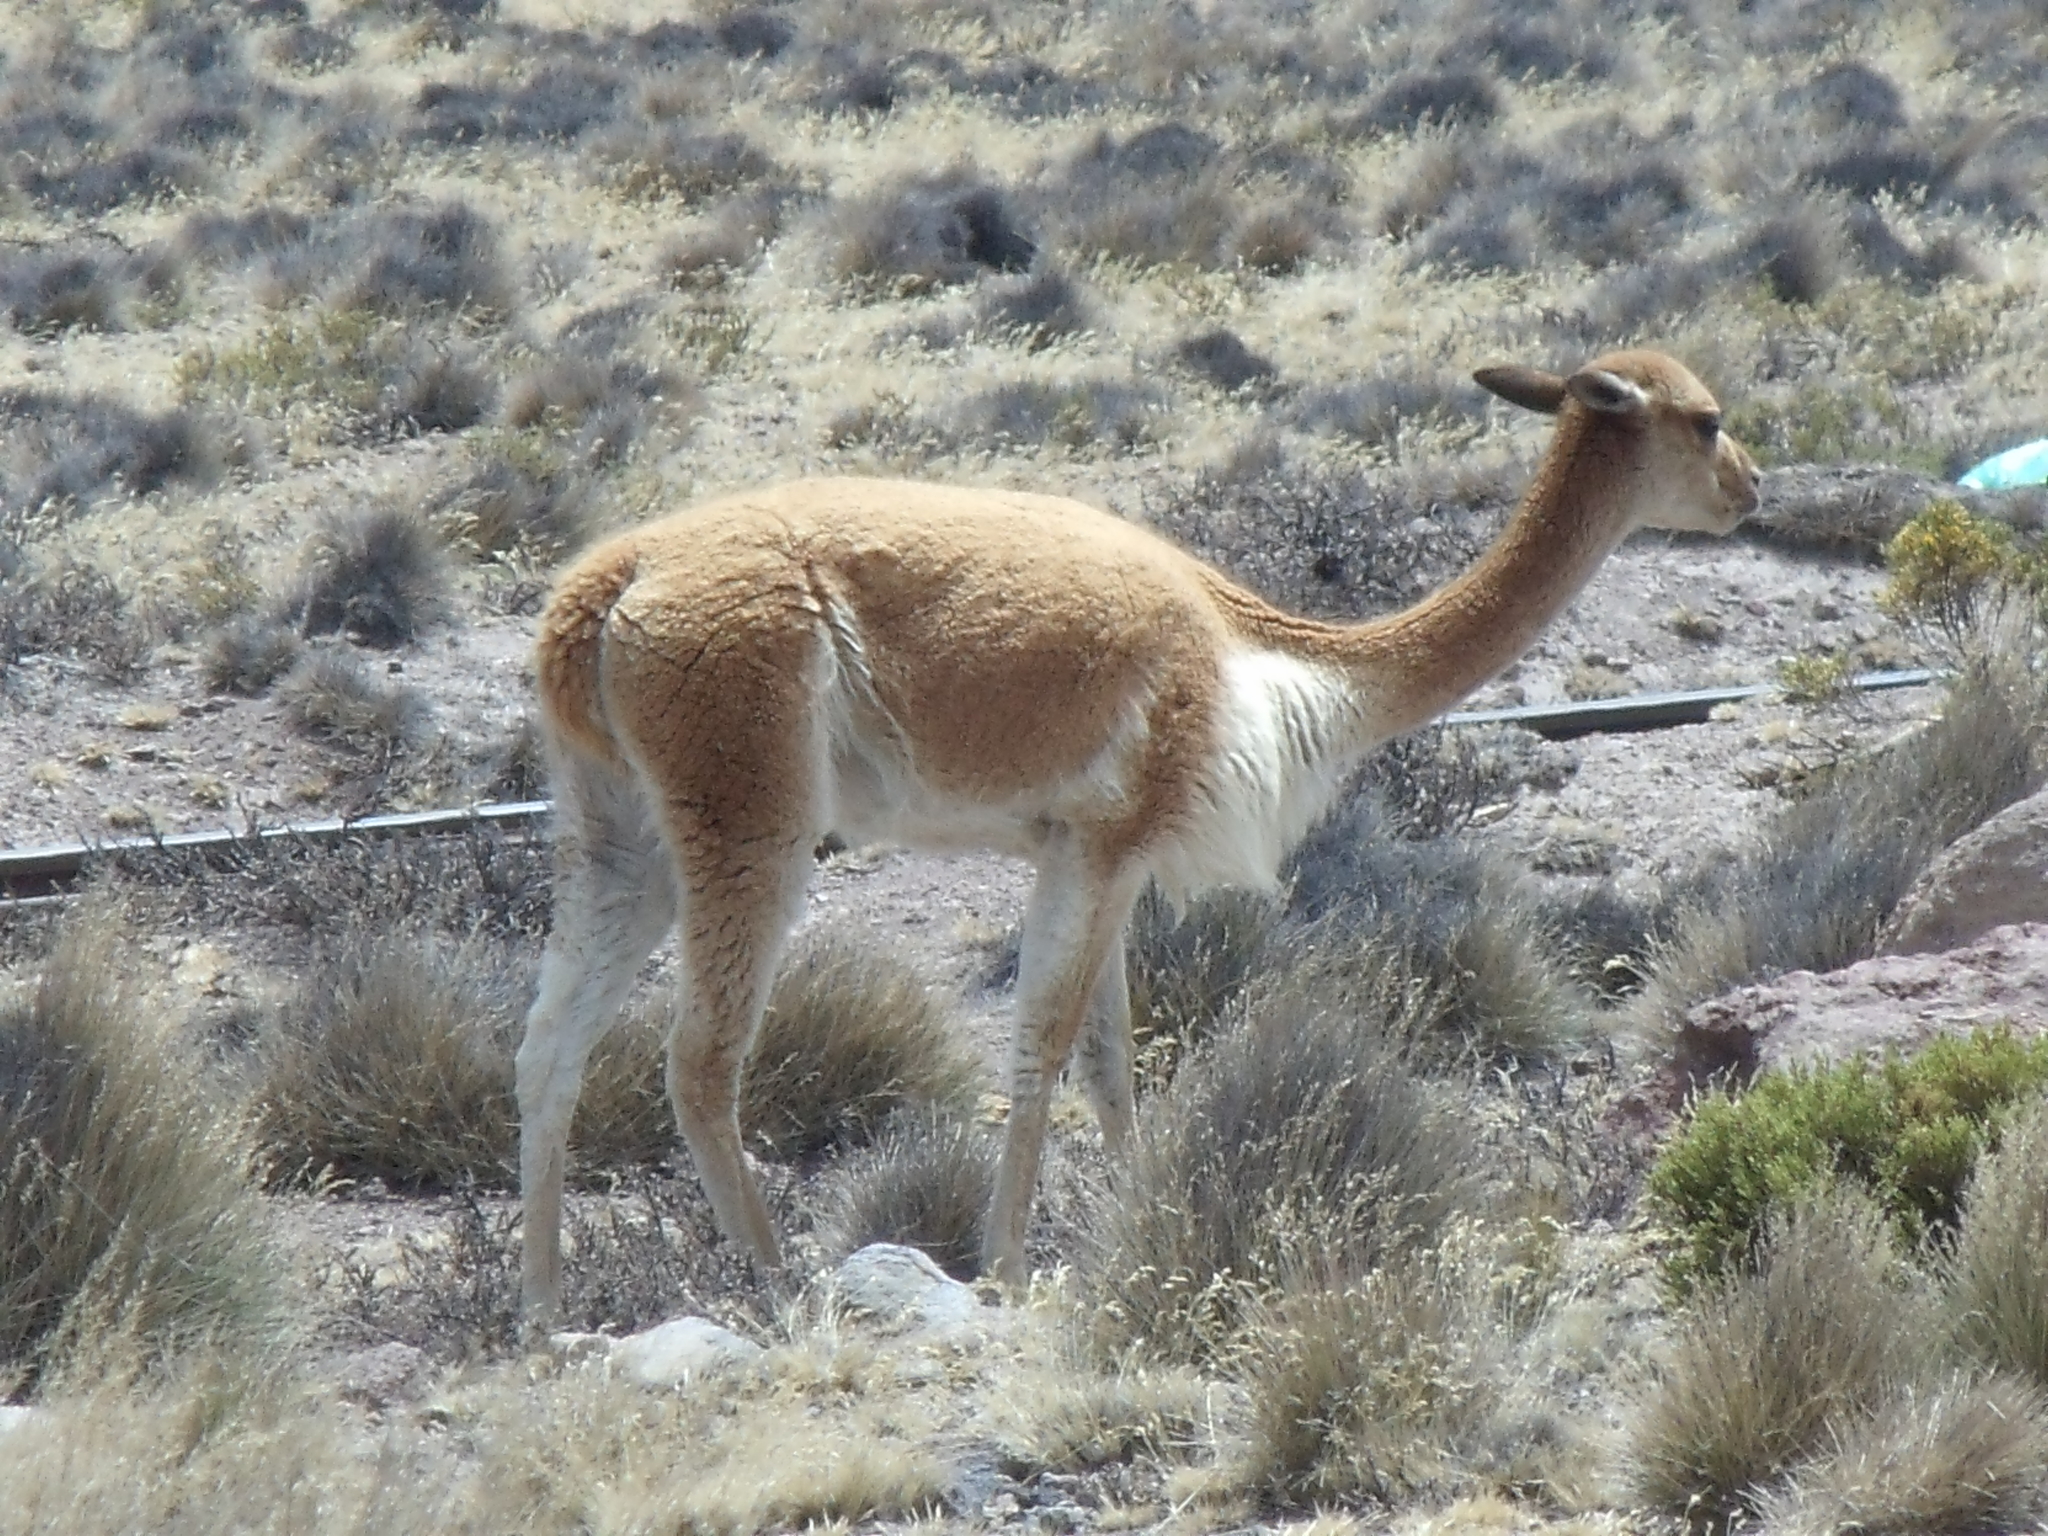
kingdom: Animalia
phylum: Chordata
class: Mammalia
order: Artiodactyla
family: Camelidae
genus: Vicugna
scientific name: Vicugna vicugna
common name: Vicugna
